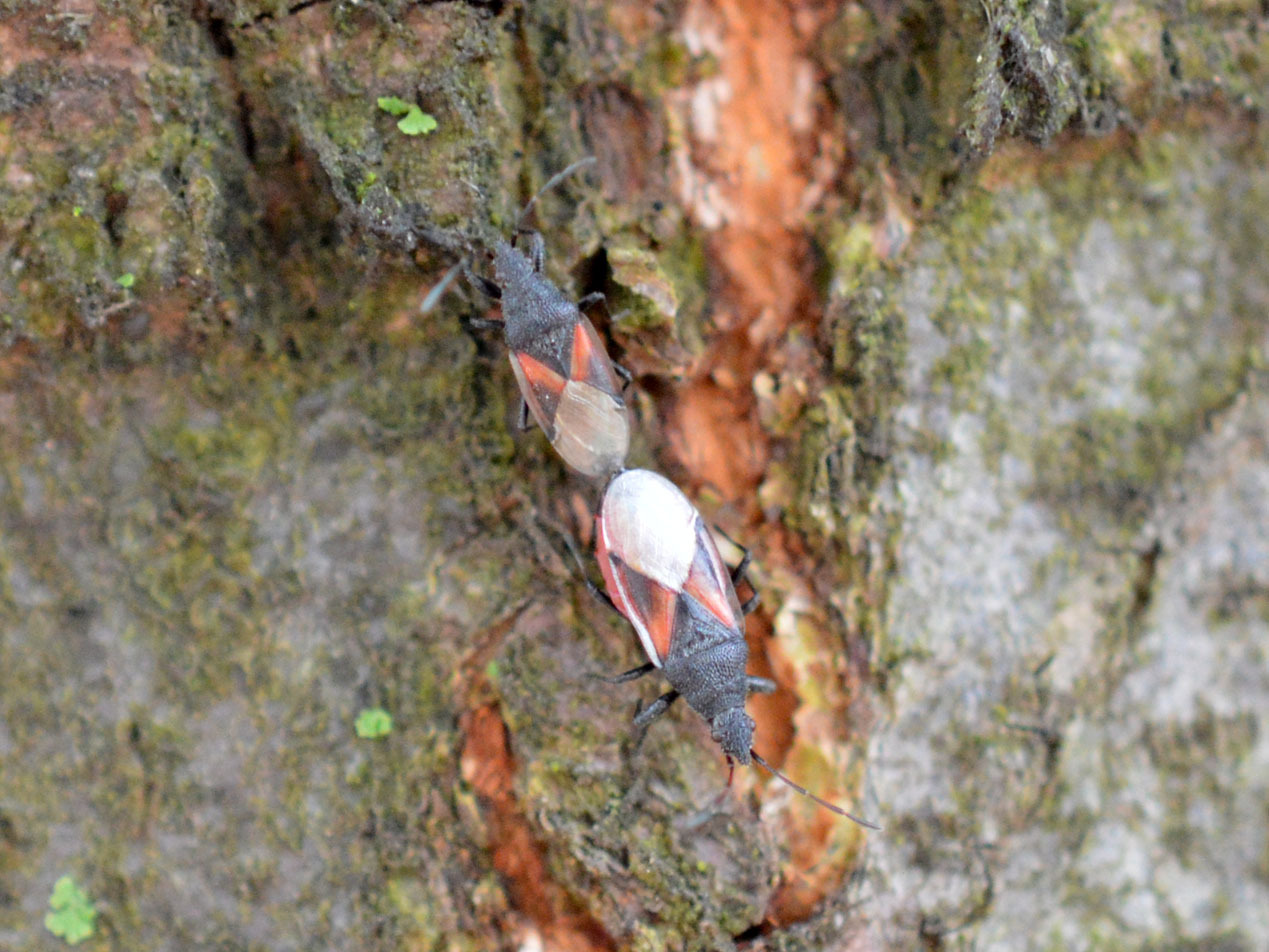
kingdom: Animalia
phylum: Arthropoda
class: Insecta
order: Hemiptera
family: Oxycarenidae
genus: Oxycarenus
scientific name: Oxycarenus lavaterae
